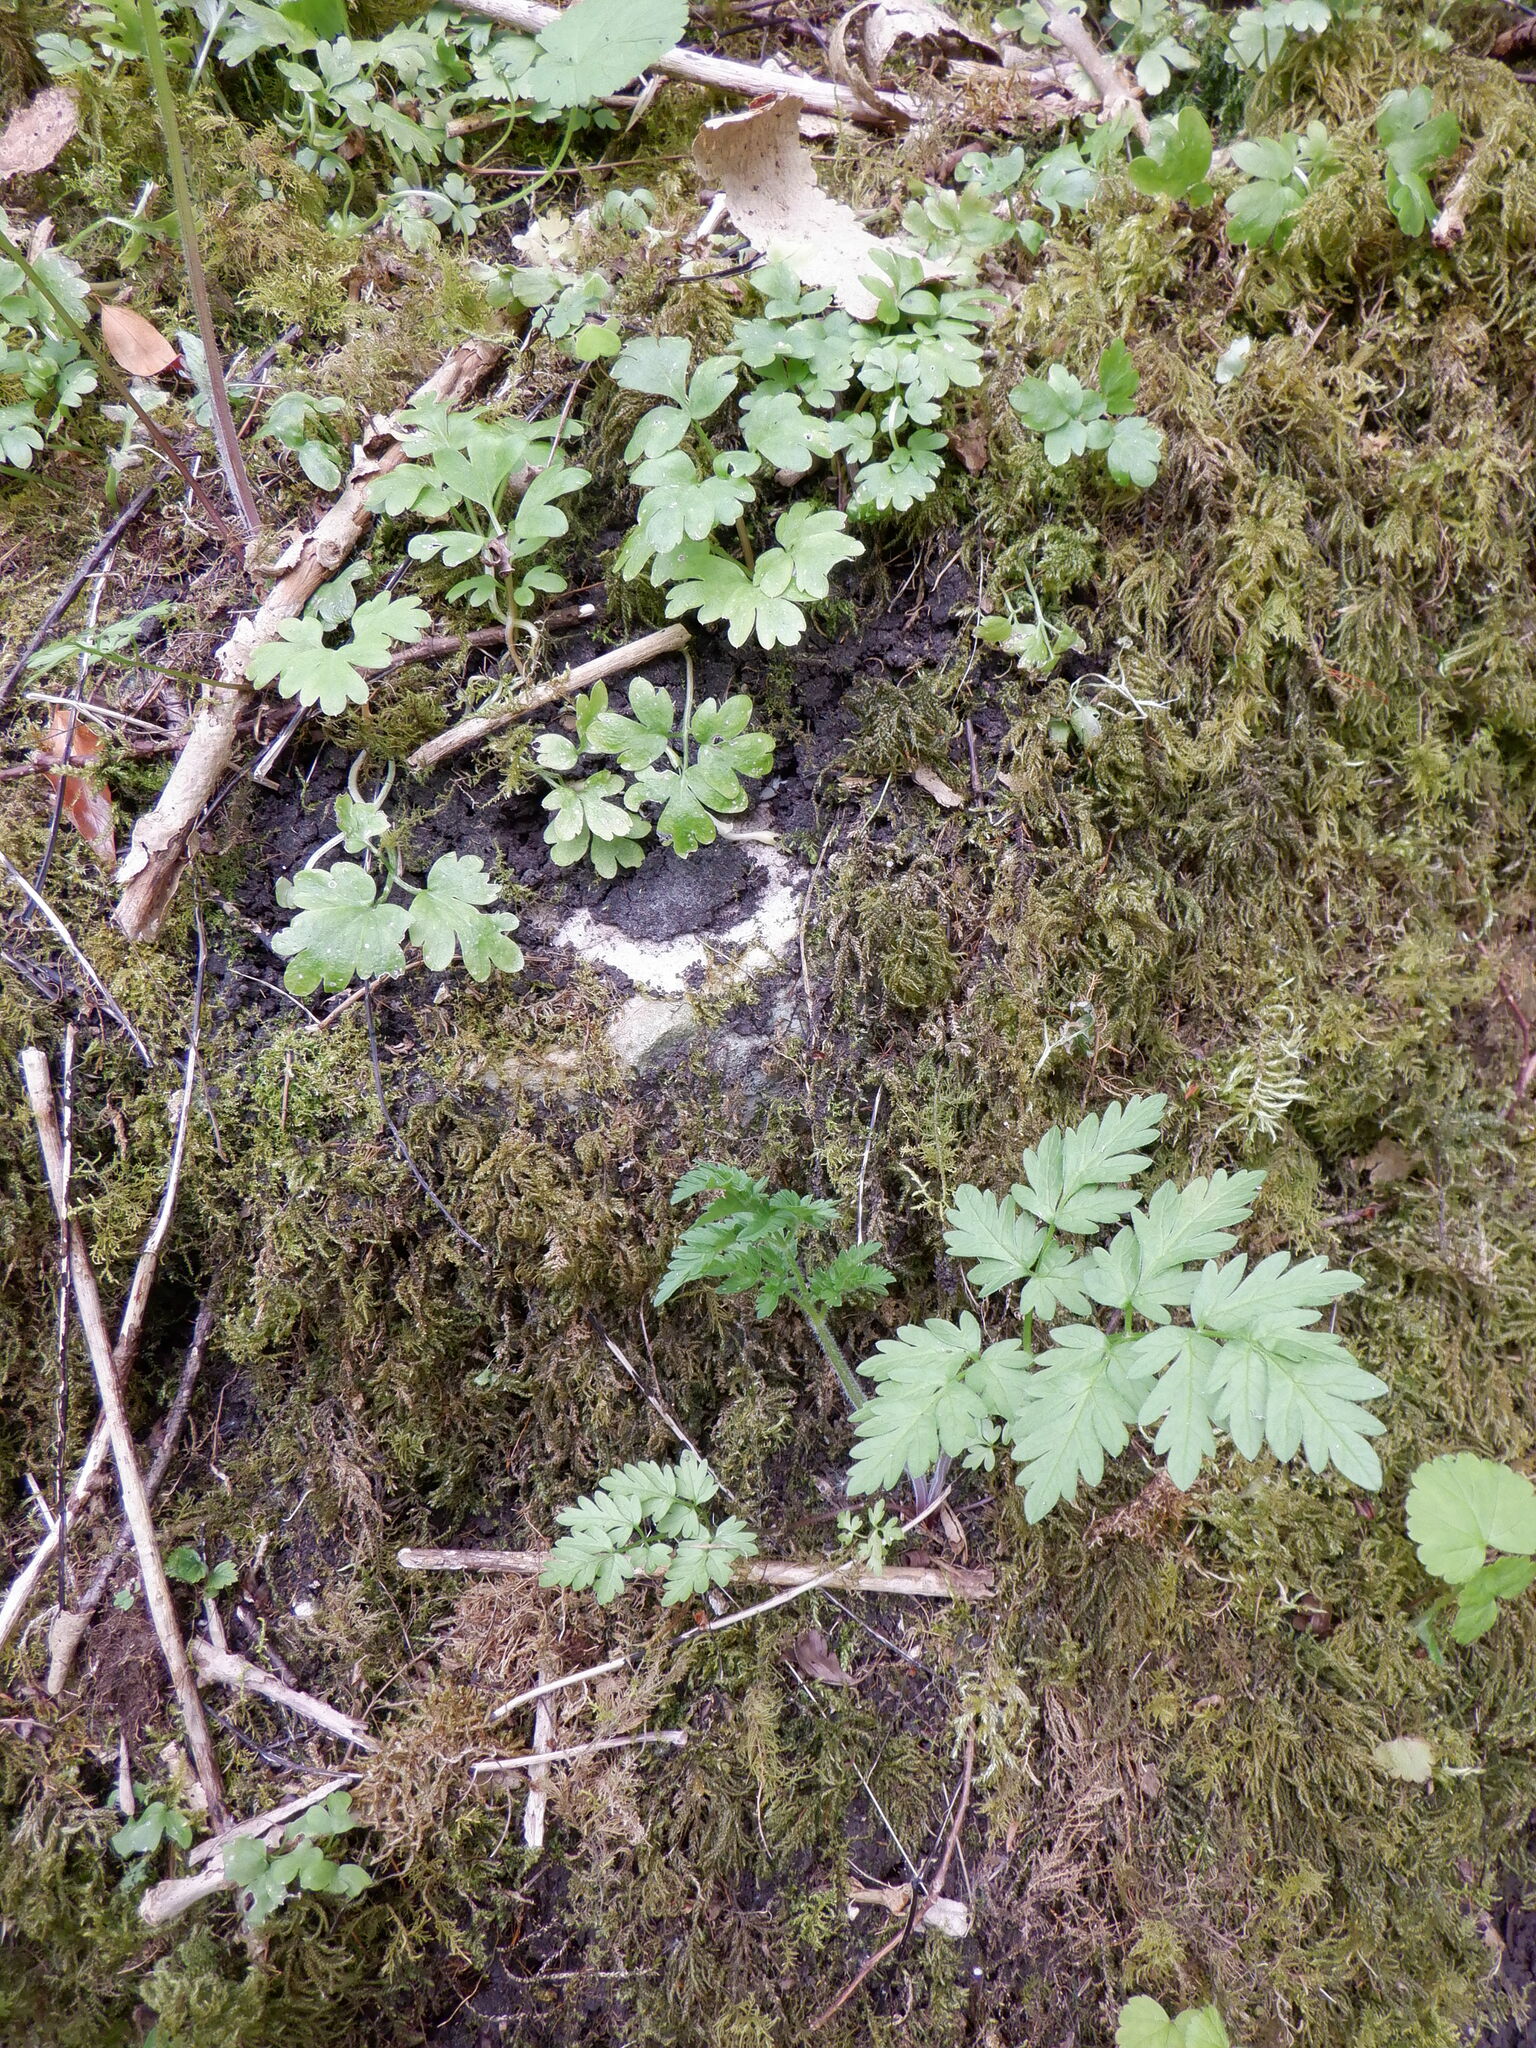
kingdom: Plantae
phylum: Tracheophyta
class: Magnoliopsida
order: Dipsacales
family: Viburnaceae
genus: Adoxa
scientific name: Adoxa moschatellina
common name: Moschatel
